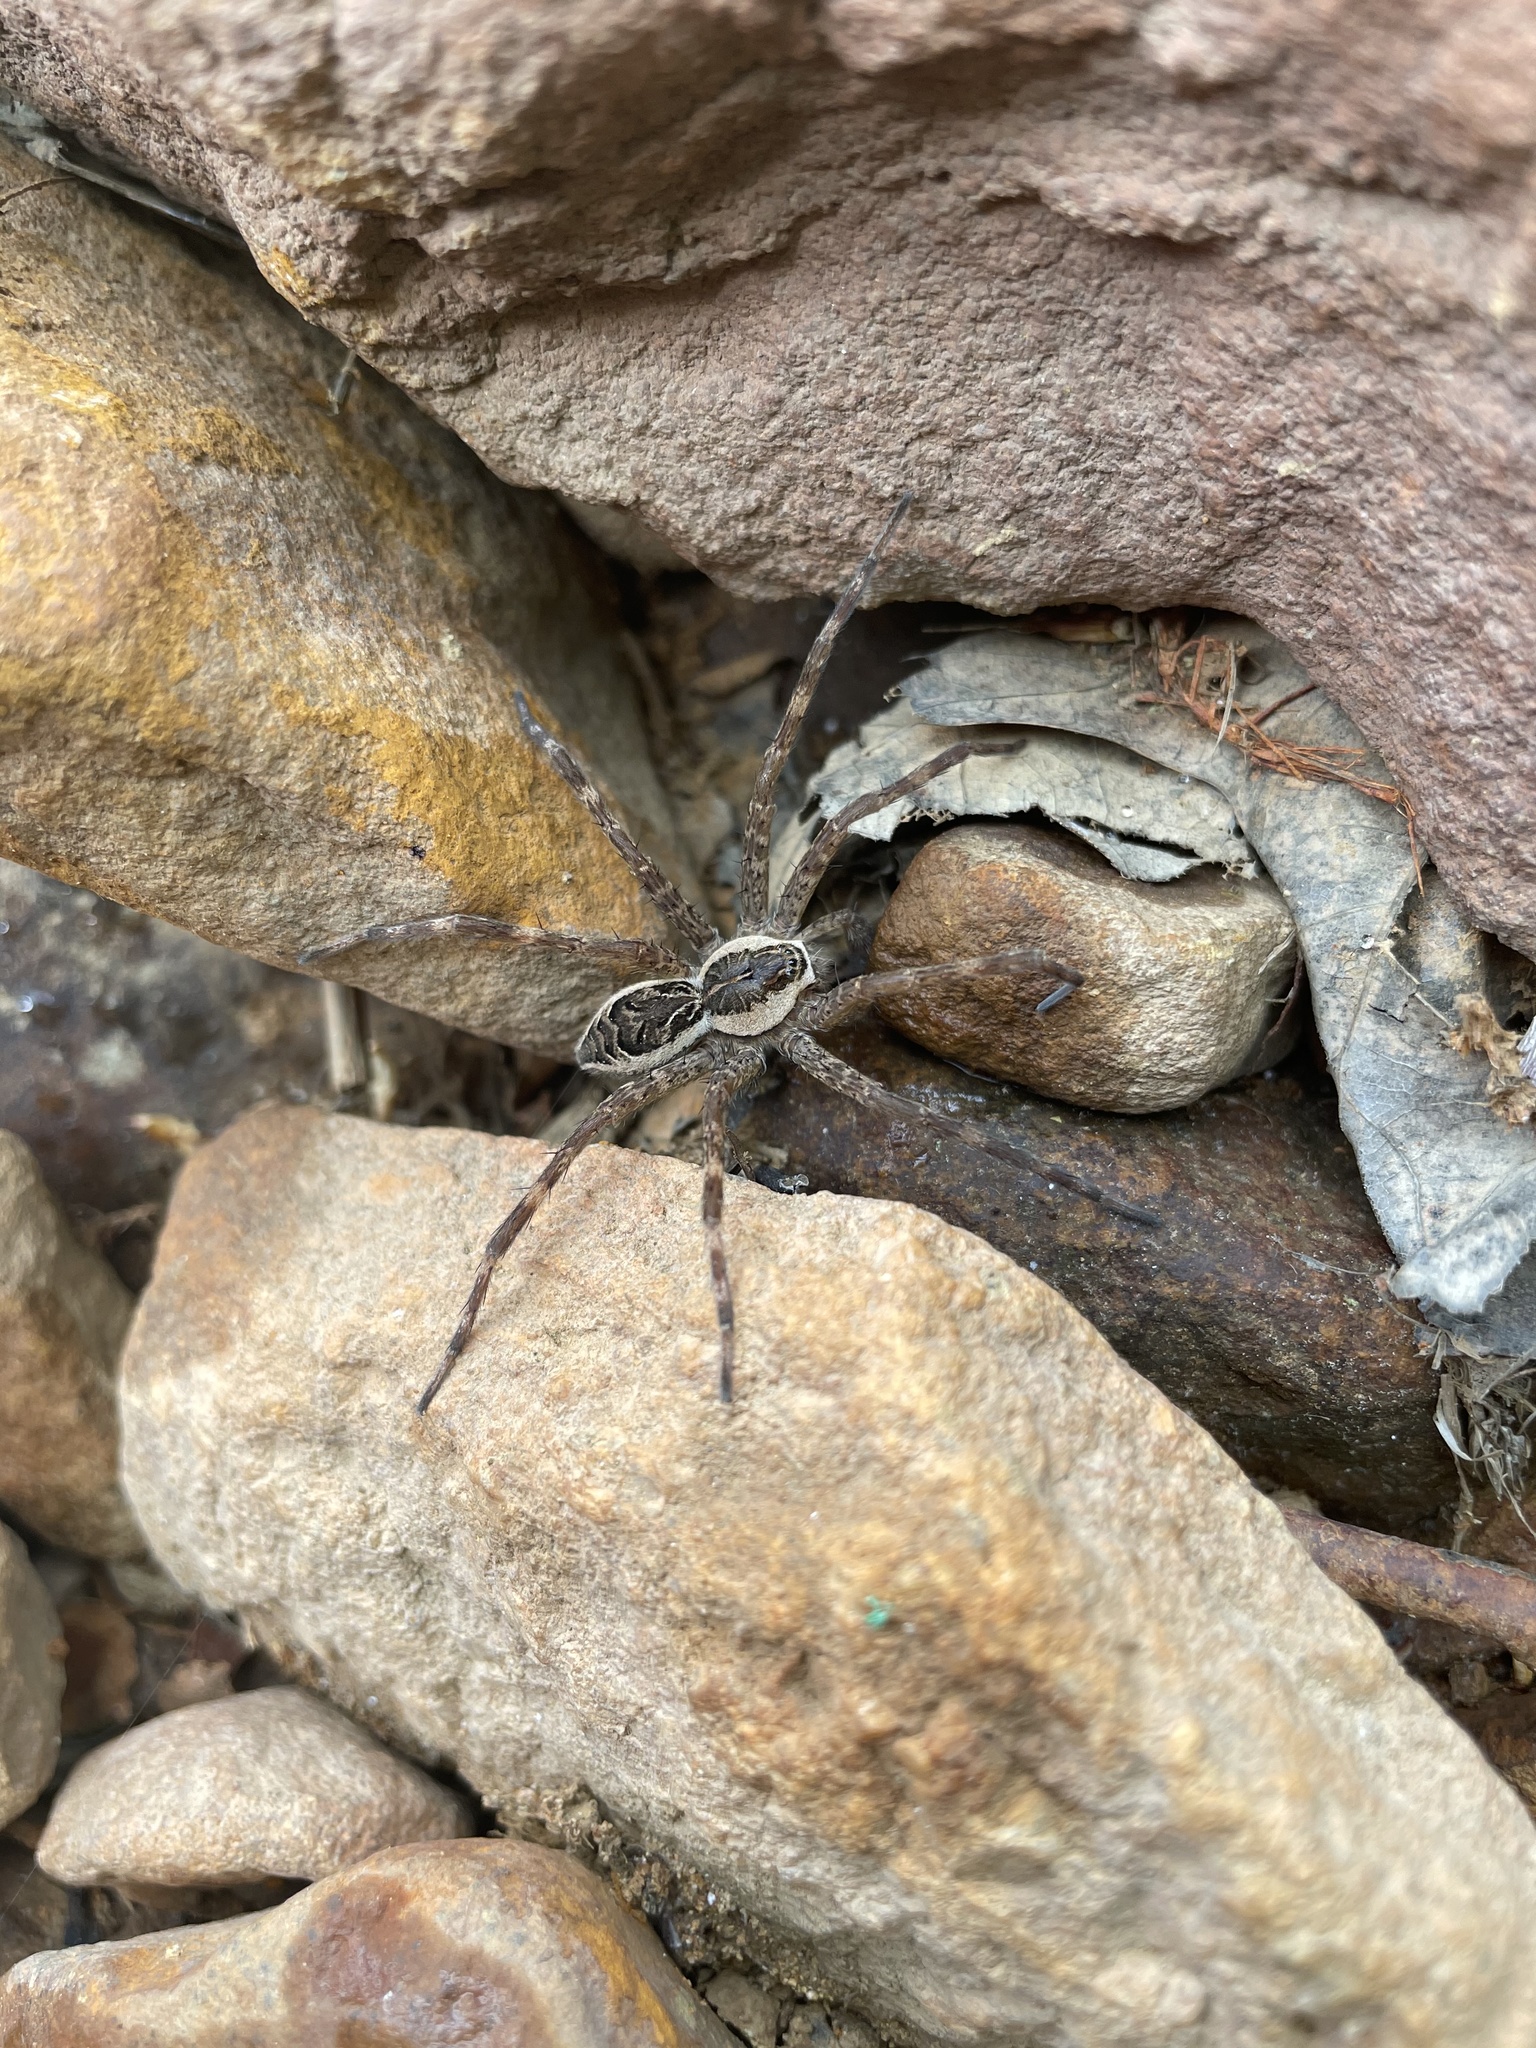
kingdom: Animalia
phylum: Arthropoda
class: Arachnida
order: Araneae
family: Pisauridae
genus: Dolomedes
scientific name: Dolomedes scriptus
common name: Striped fishing spider
